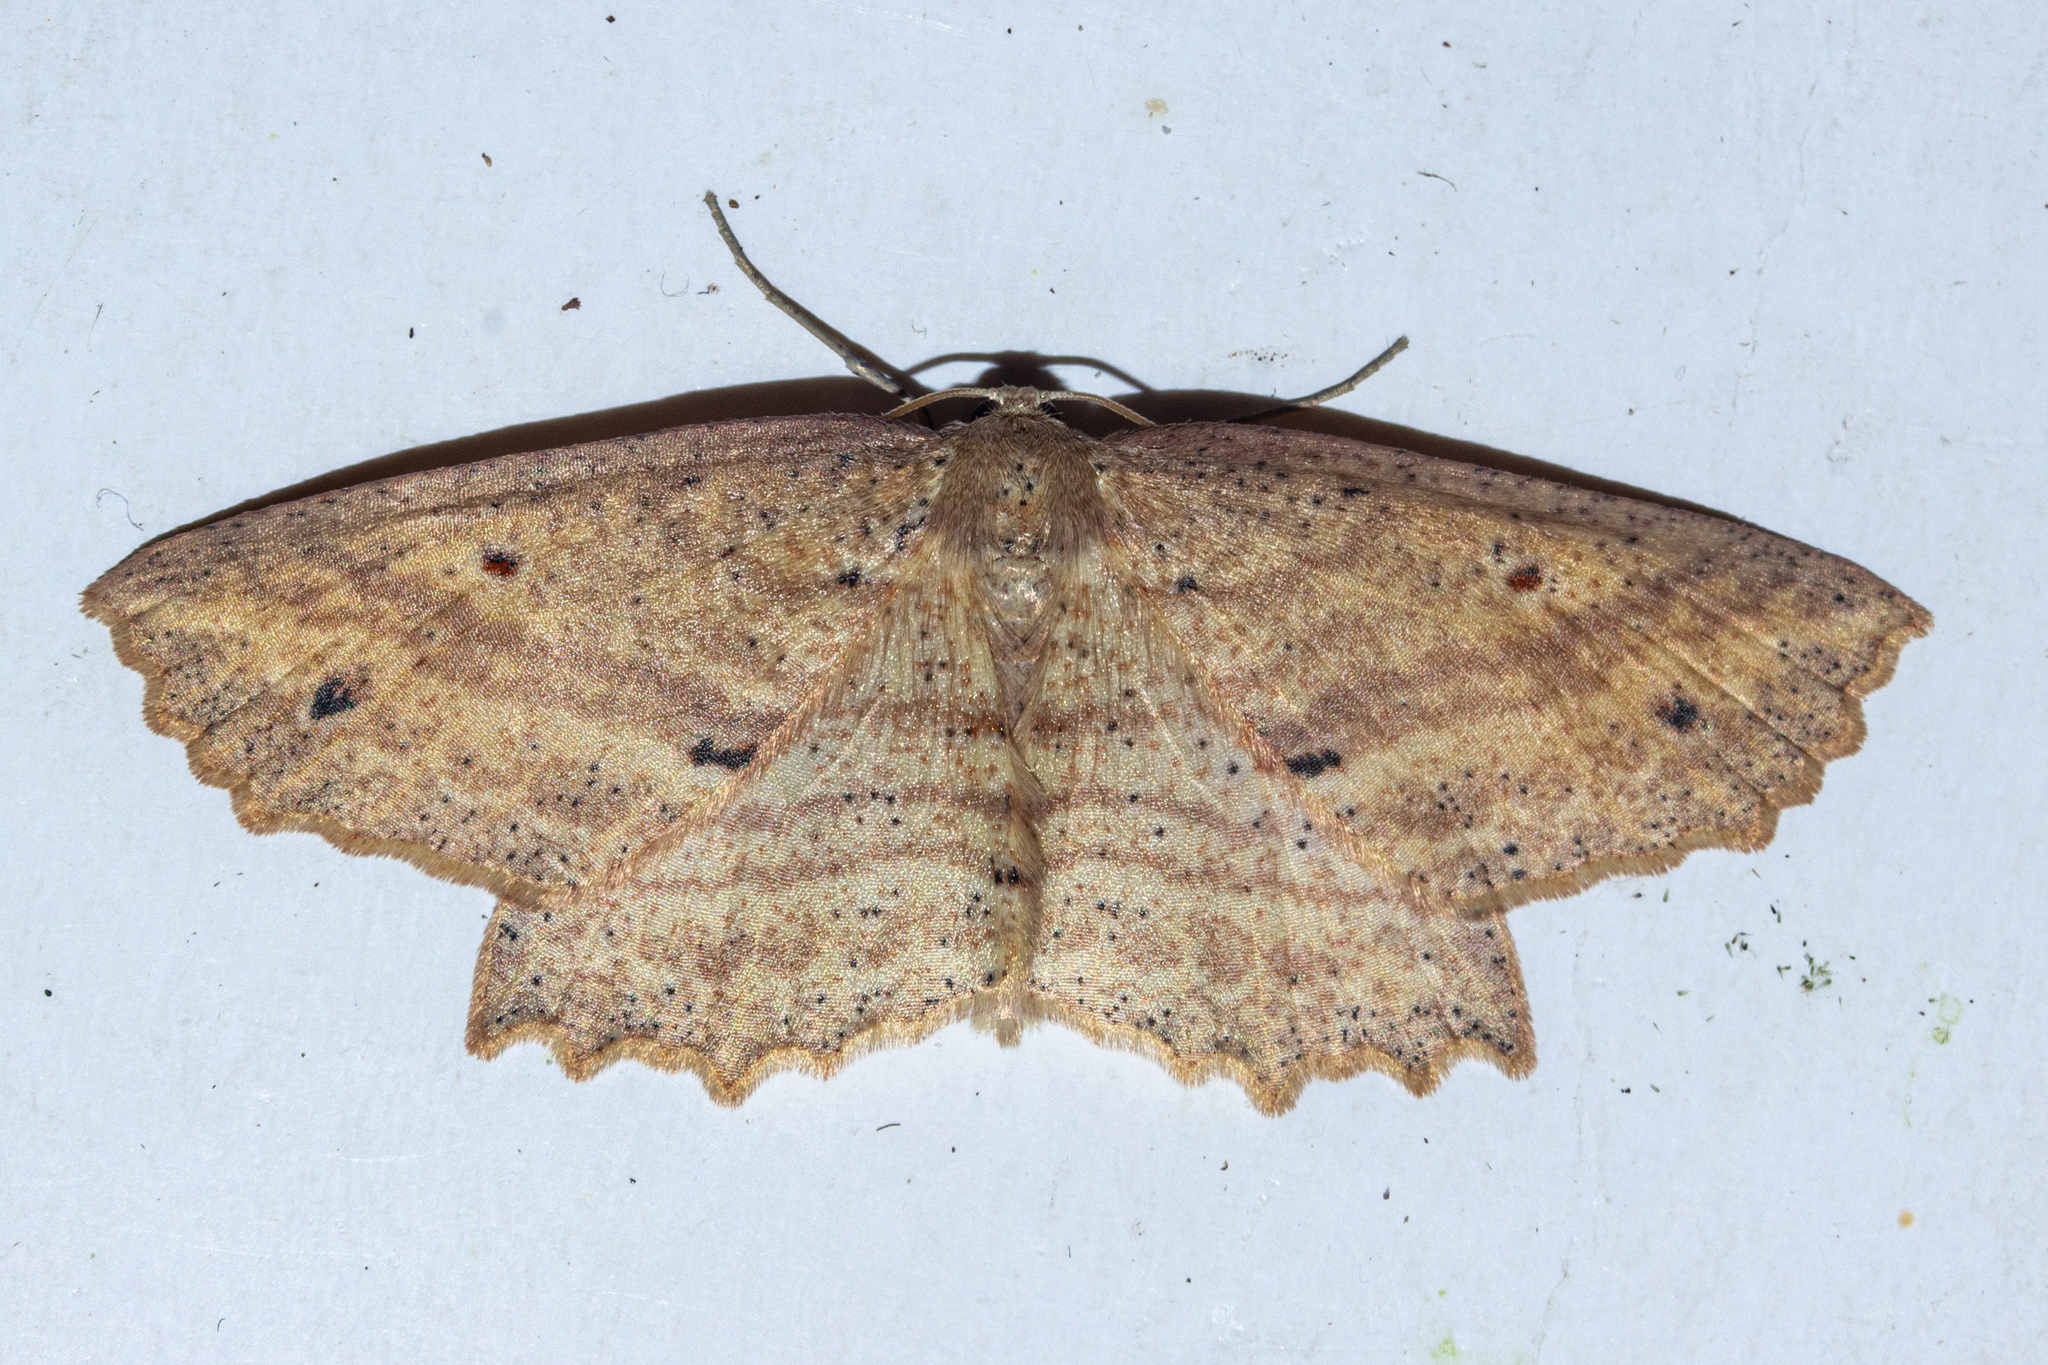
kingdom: Animalia
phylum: Arthropoda
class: Insecta
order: Lepidoptera
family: Geometridae
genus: Xyridacma
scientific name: Xyridacma veronicae
